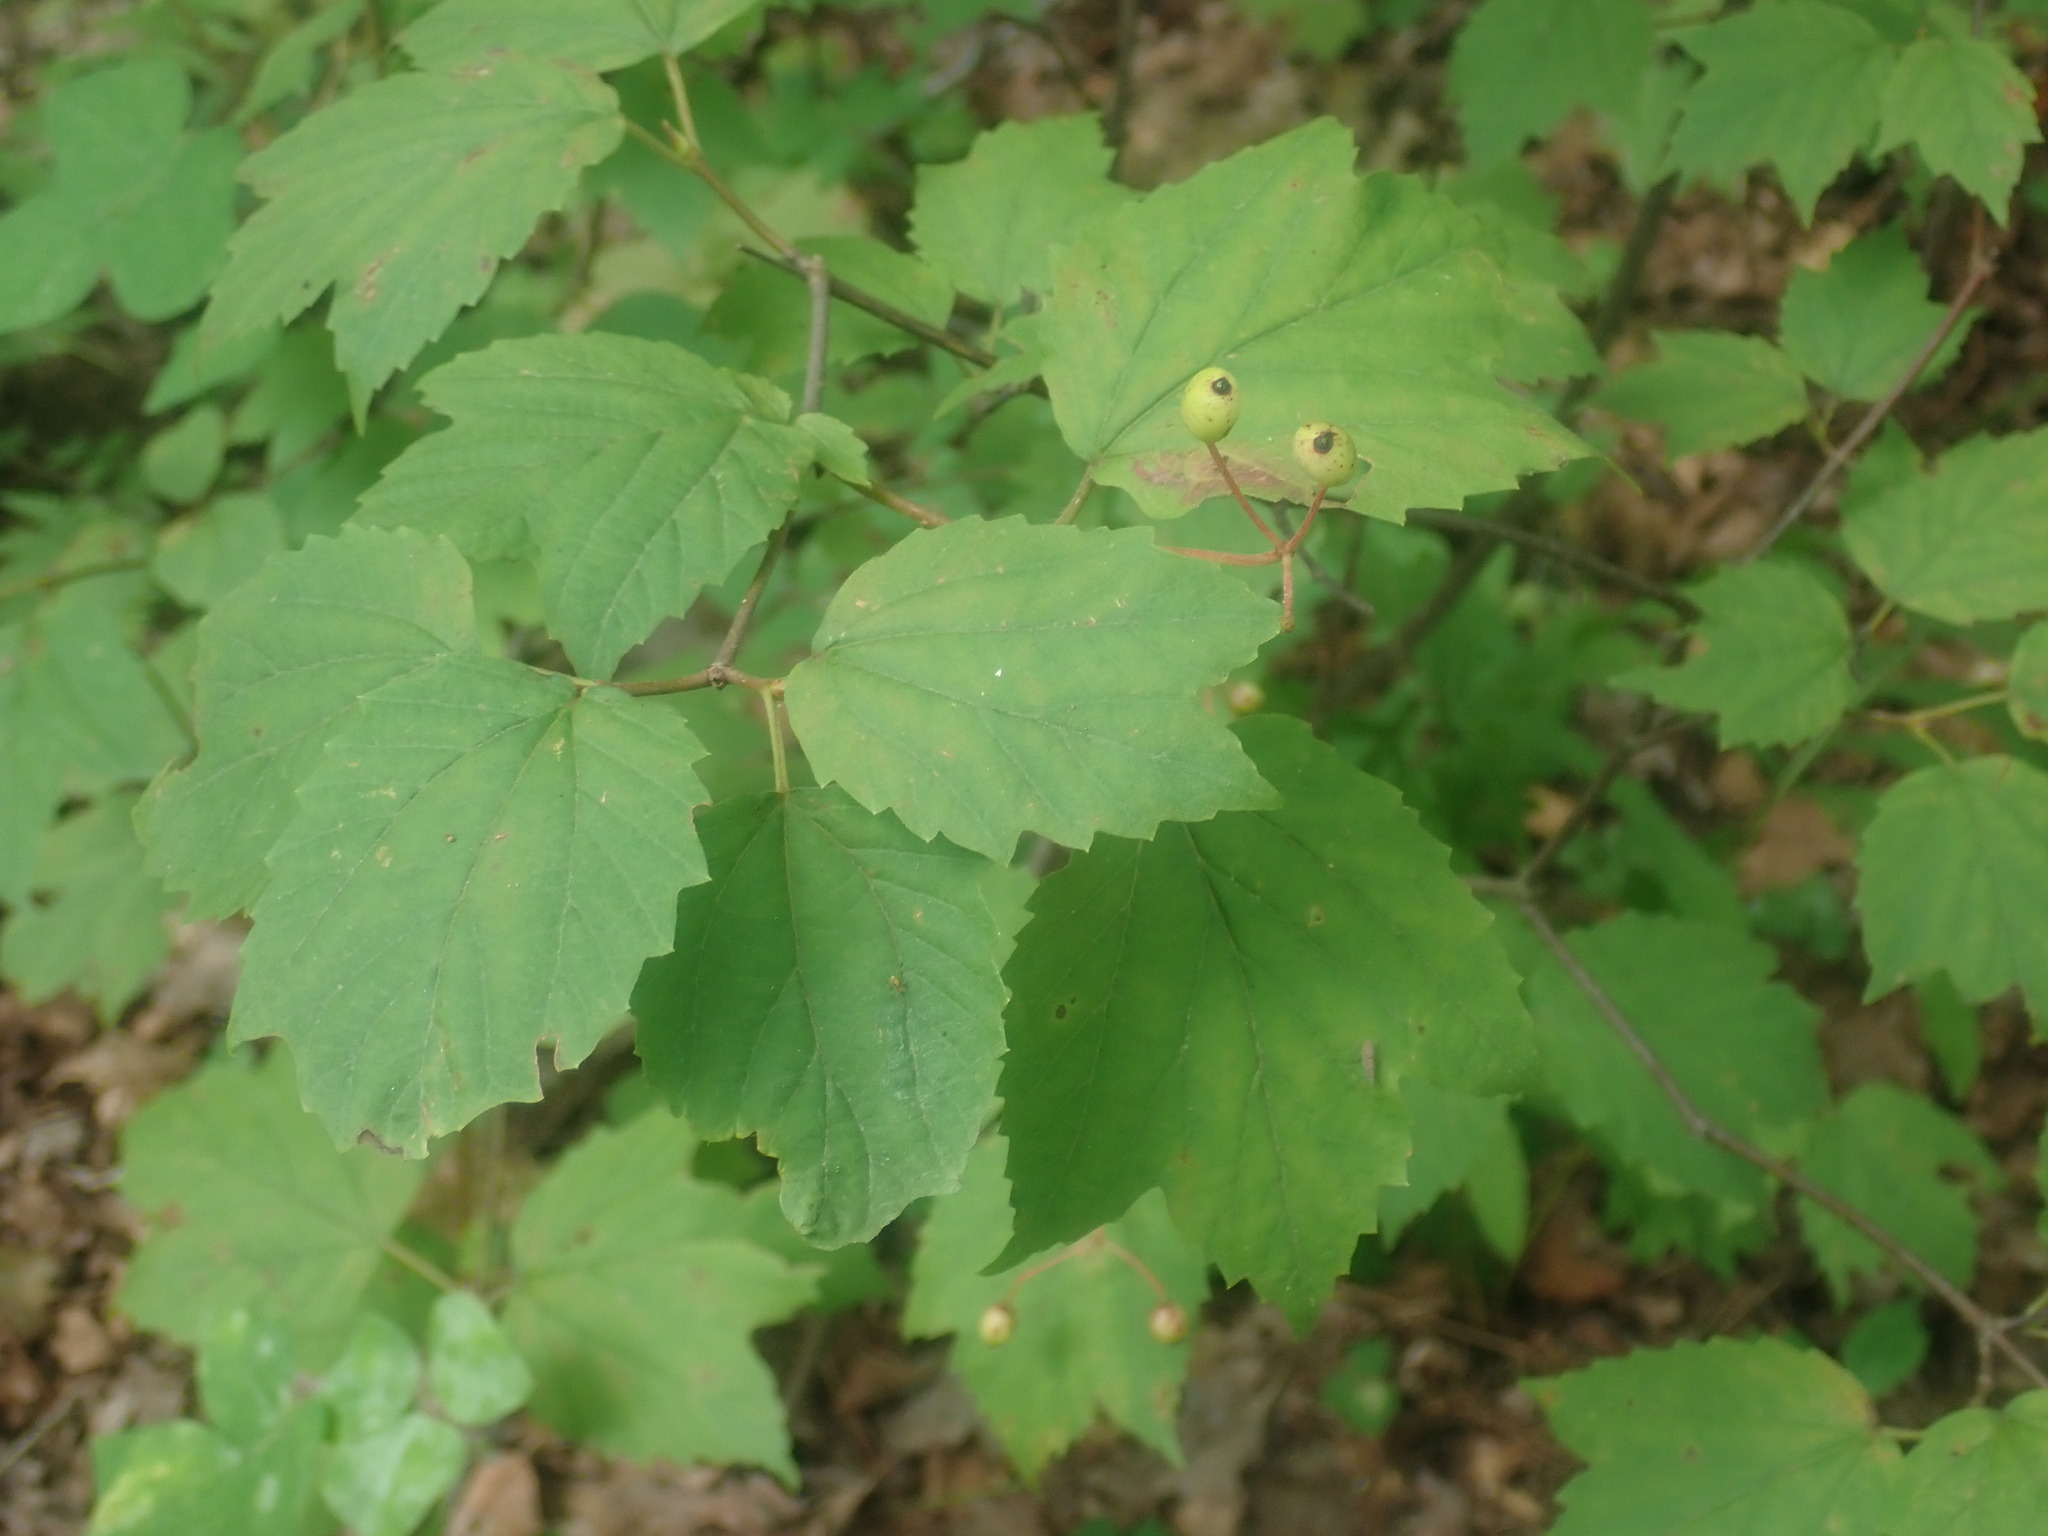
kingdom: Plantae
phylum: Tracheophyta
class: Magnoliopsida
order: Dipsacales
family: Viburnaceae
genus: Viburnum
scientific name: Viburnum acerifolium
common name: Dockmackie
